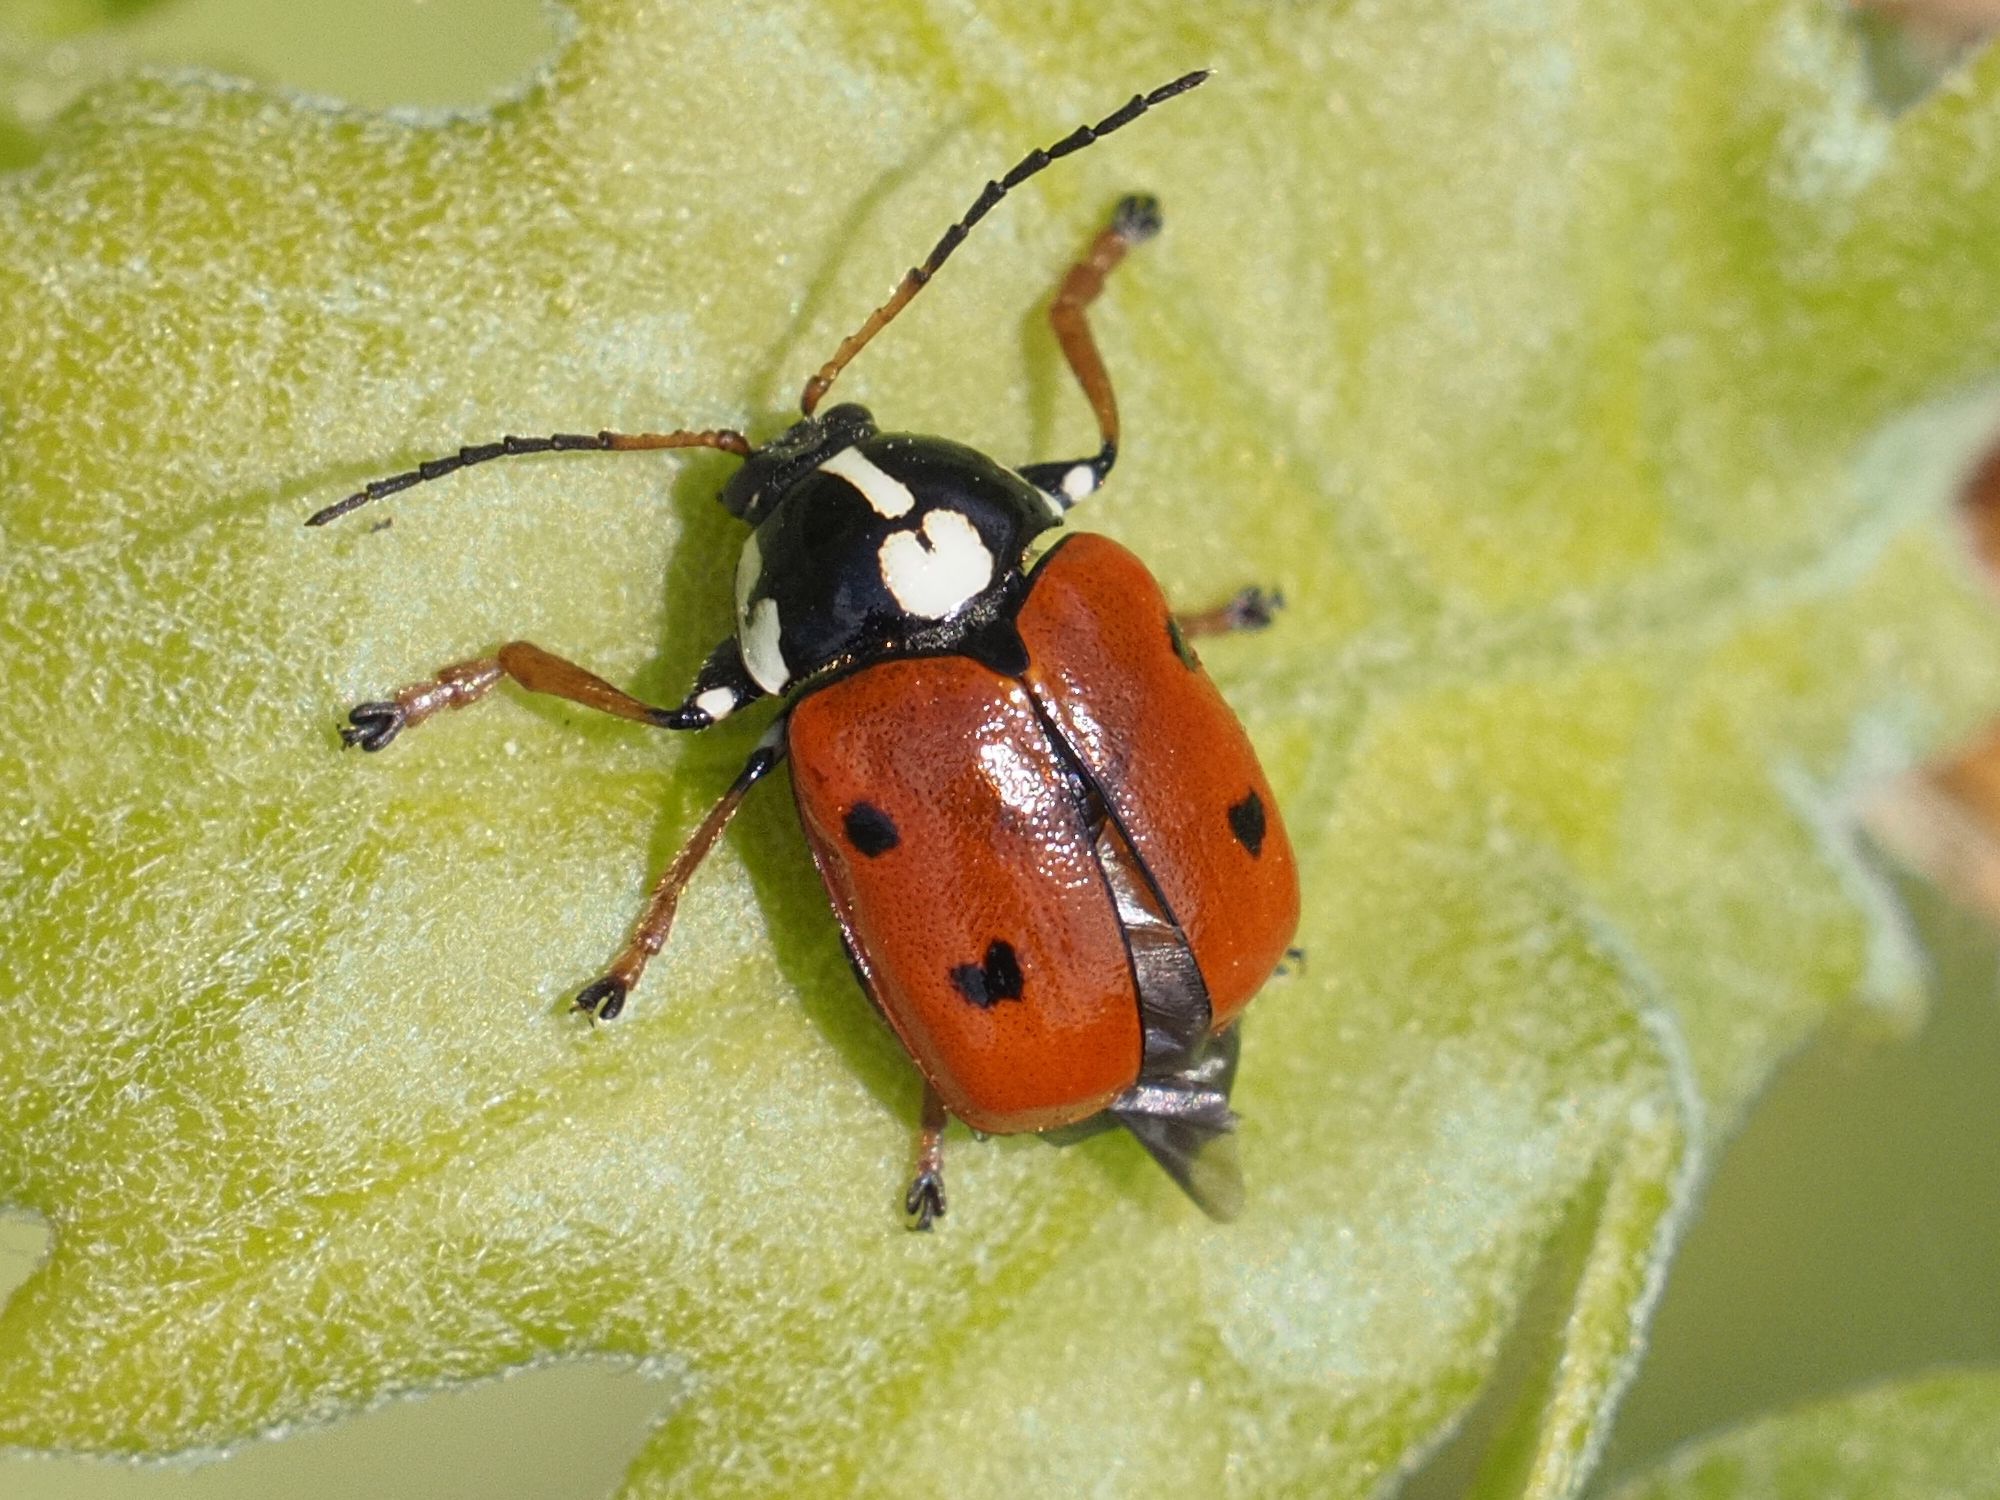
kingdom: Animalia
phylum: Arthropoda
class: Insecta
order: Coleoptera
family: Chrysomelidae
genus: Cryptocephalus
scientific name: Cryptocephalus cordiger
